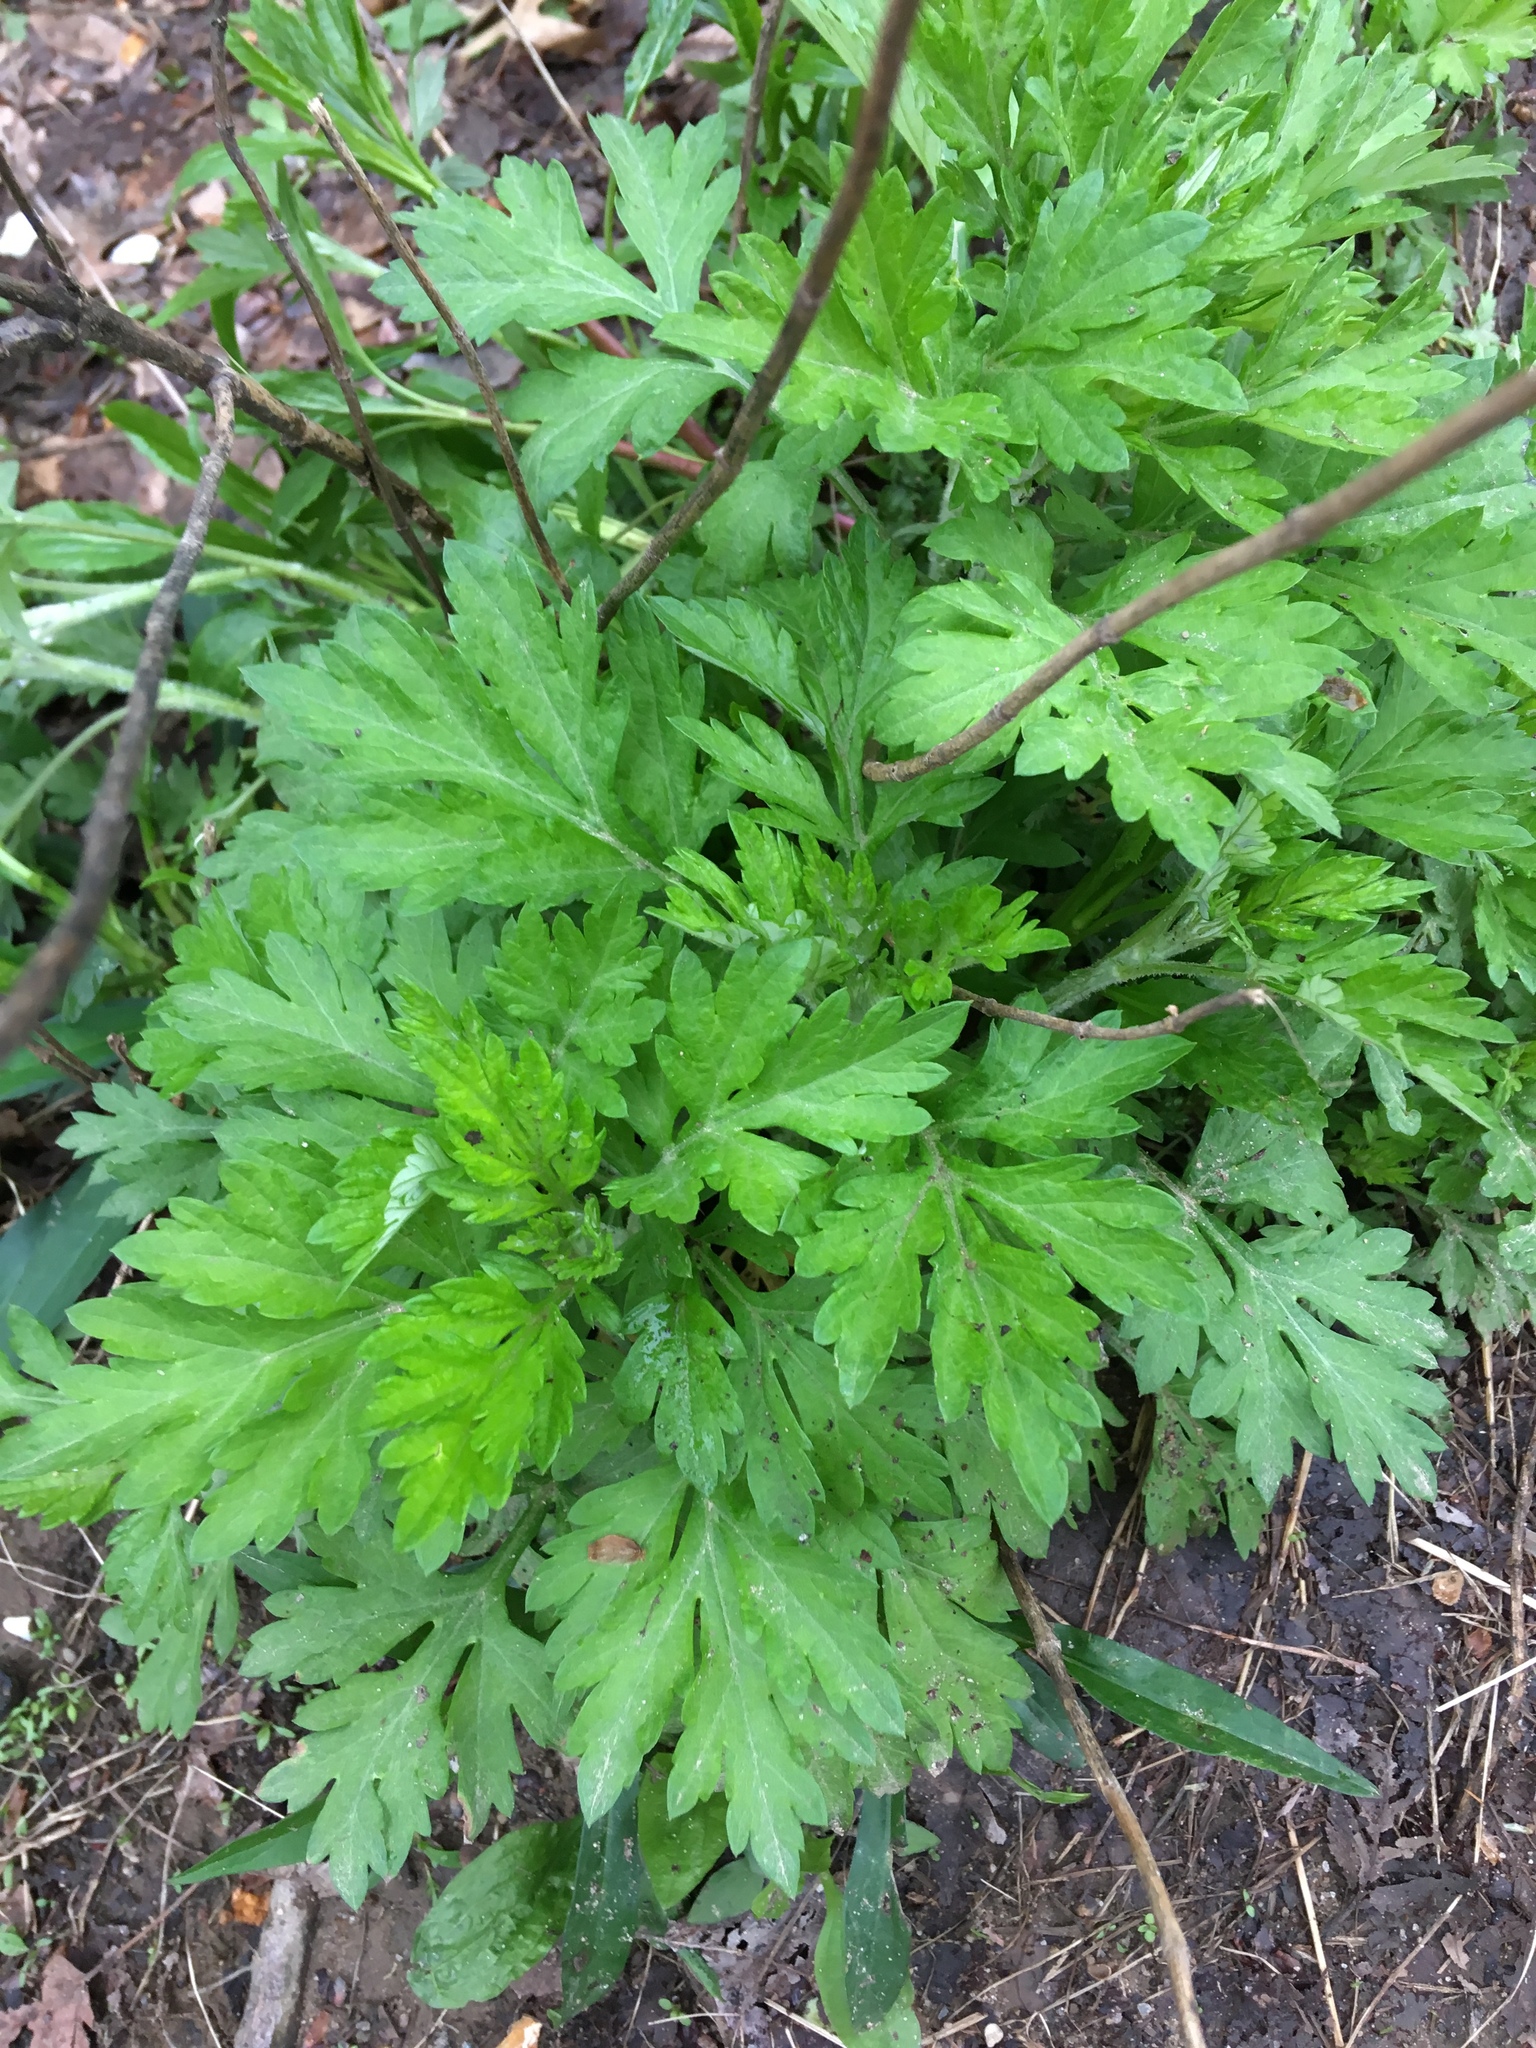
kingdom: Plantae
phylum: Tracheophyta
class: Magnoliopsida
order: Asterales
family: Asteraceae
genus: Artemisia
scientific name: Artemisia vulgaris
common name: Mugwort
